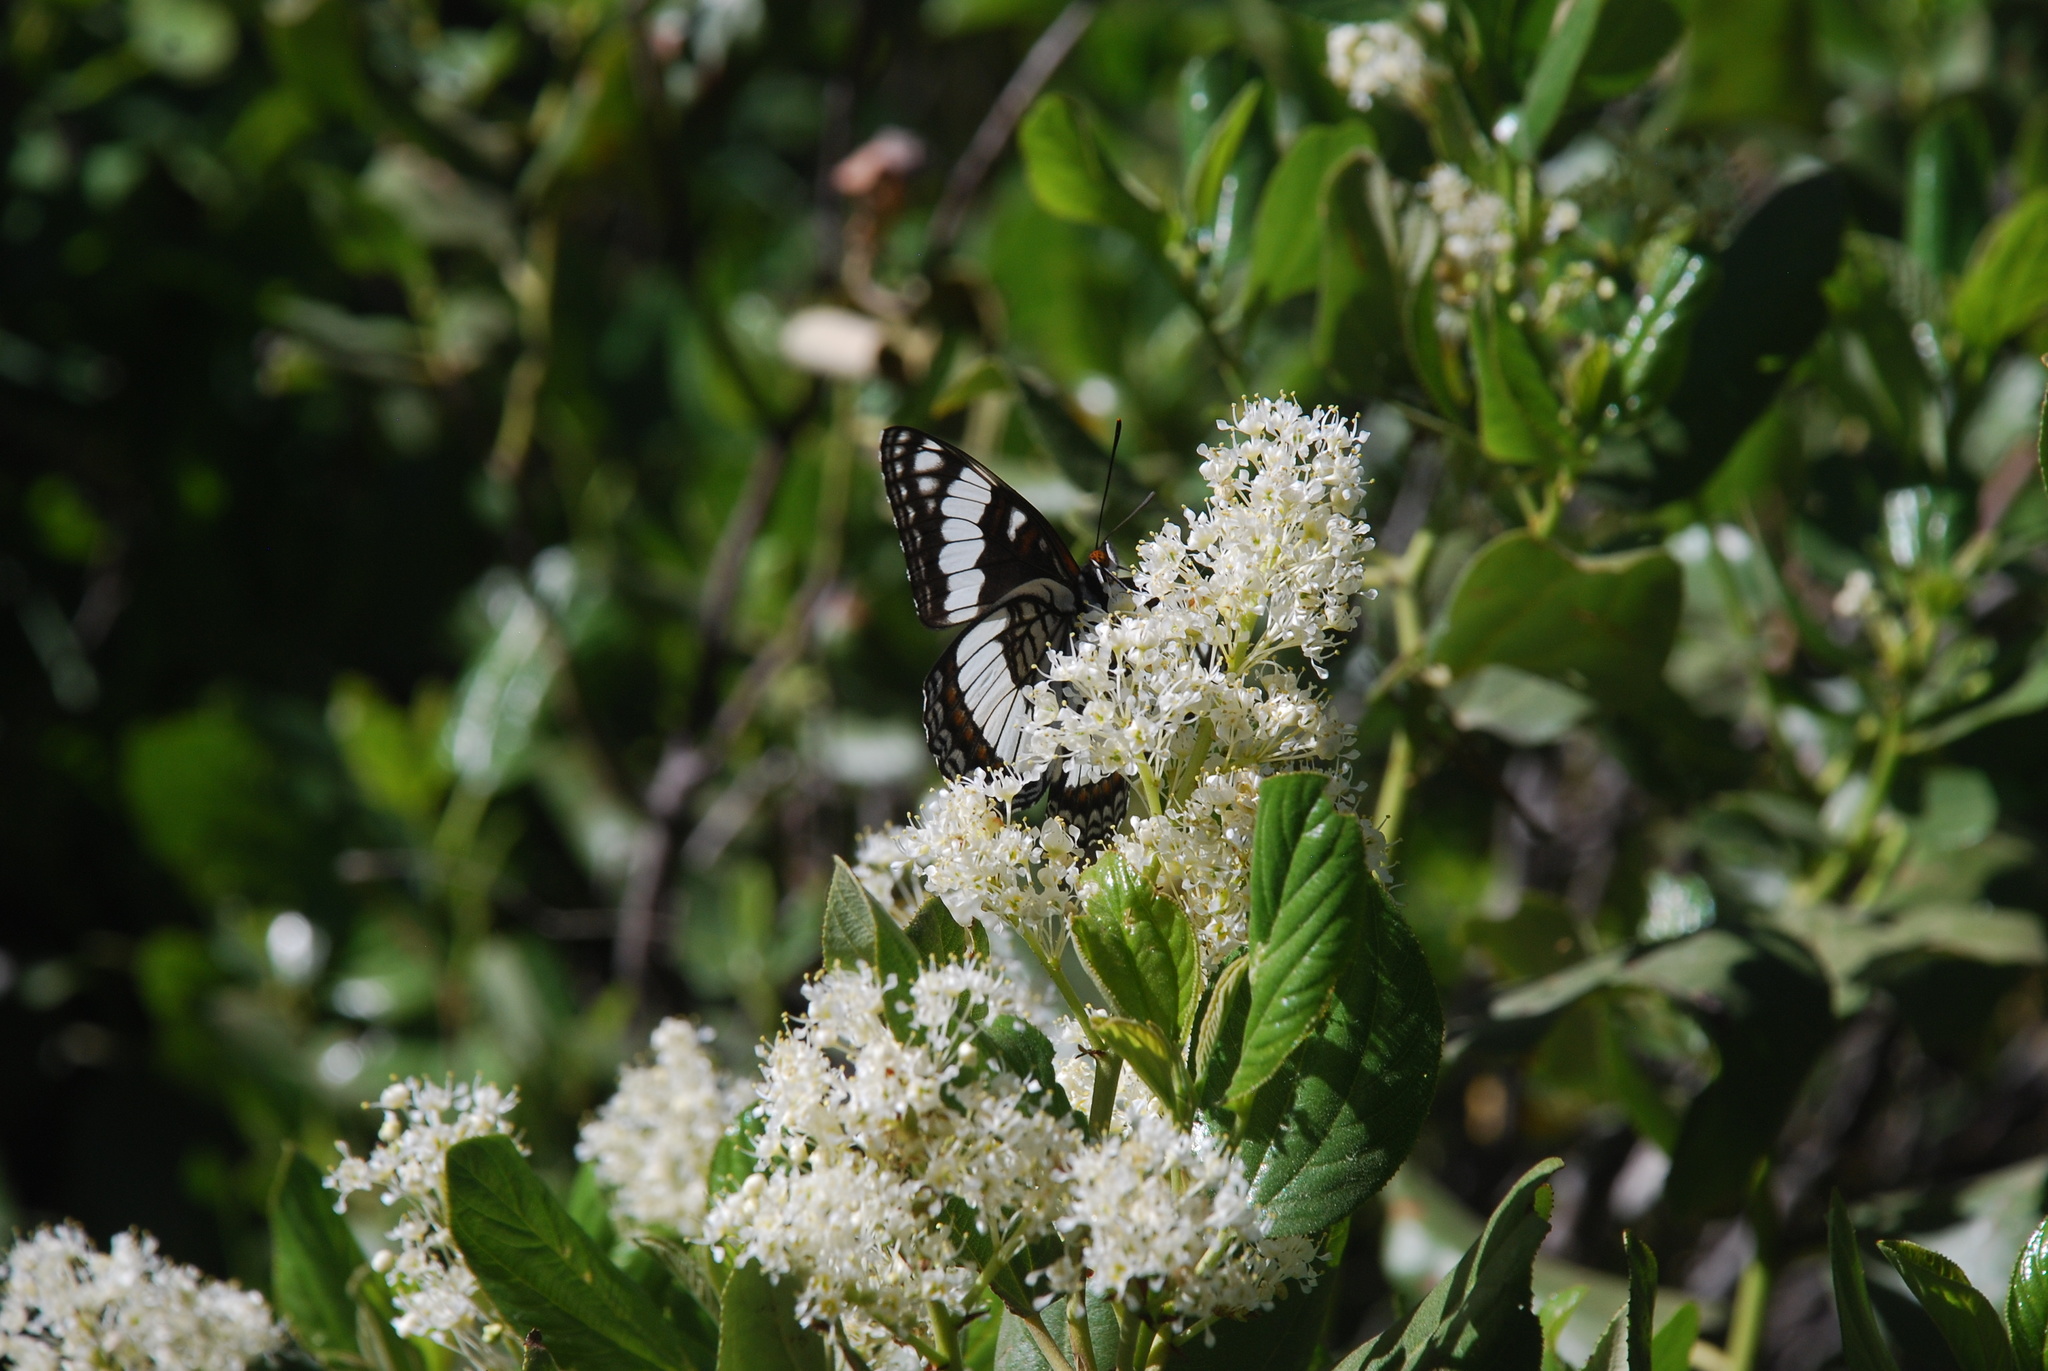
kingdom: Animalia
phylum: Arthropoda
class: Insecta
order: Lepidoptera
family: Nymphalidae
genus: Limenitis
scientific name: Limenitis weidemeyerii
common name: Weidemeyer's admiral
